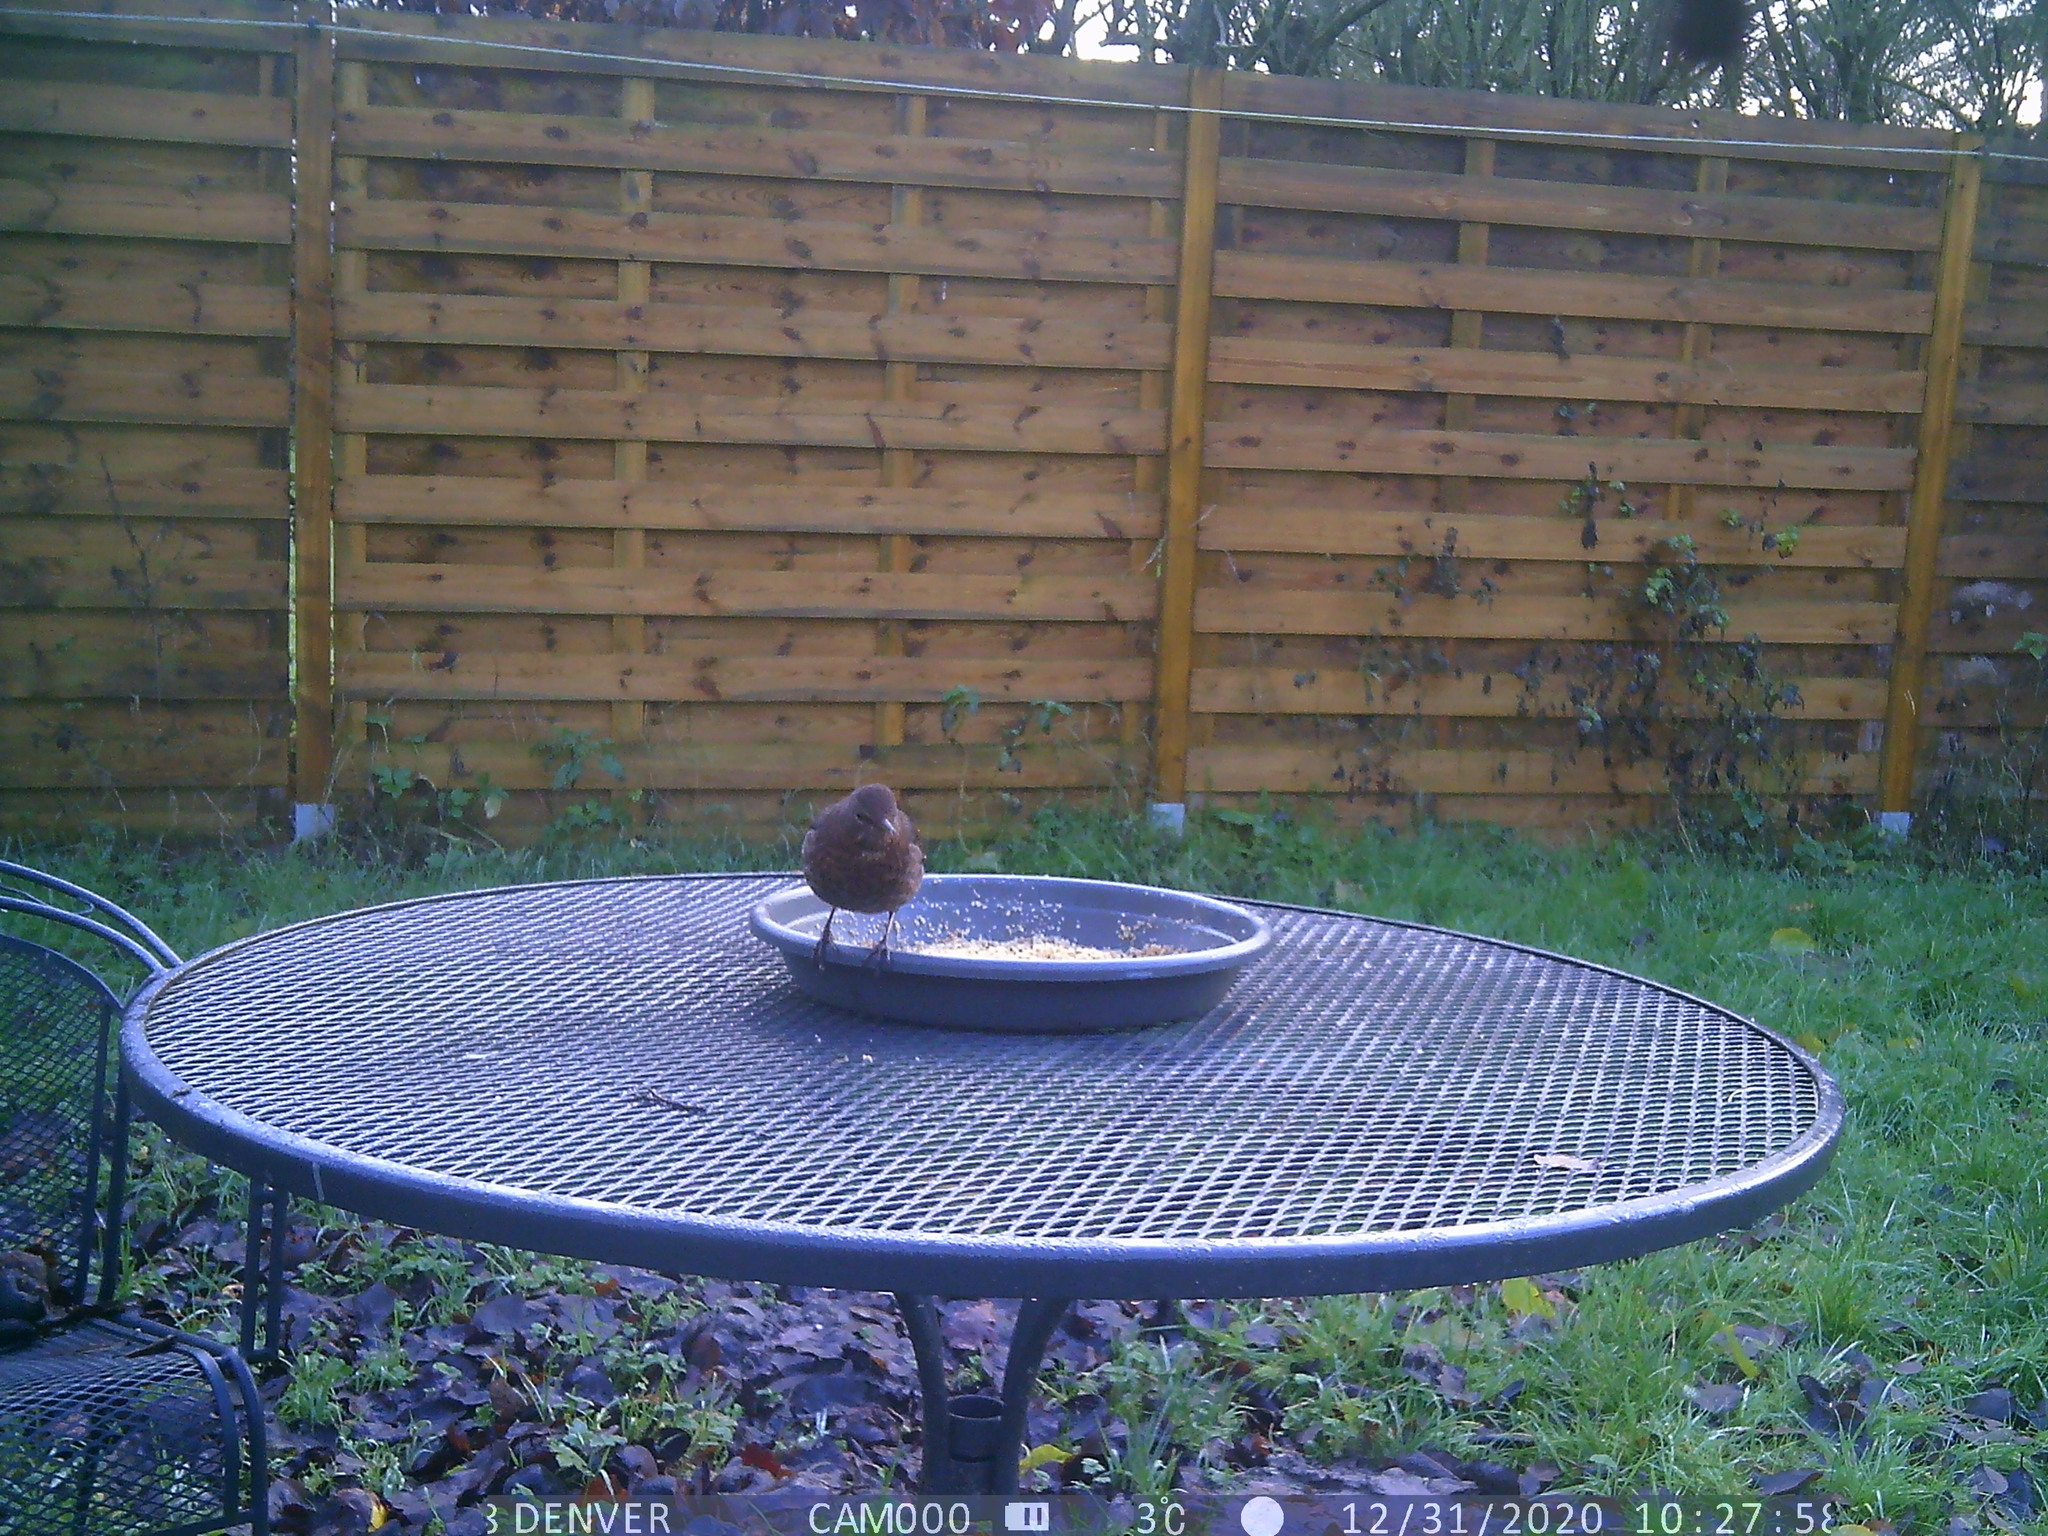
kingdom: Animalia
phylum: Chordata
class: Aves
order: Passeriformes
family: Turdidae
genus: Turdus
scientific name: Turdus merula
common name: Common blackbird
